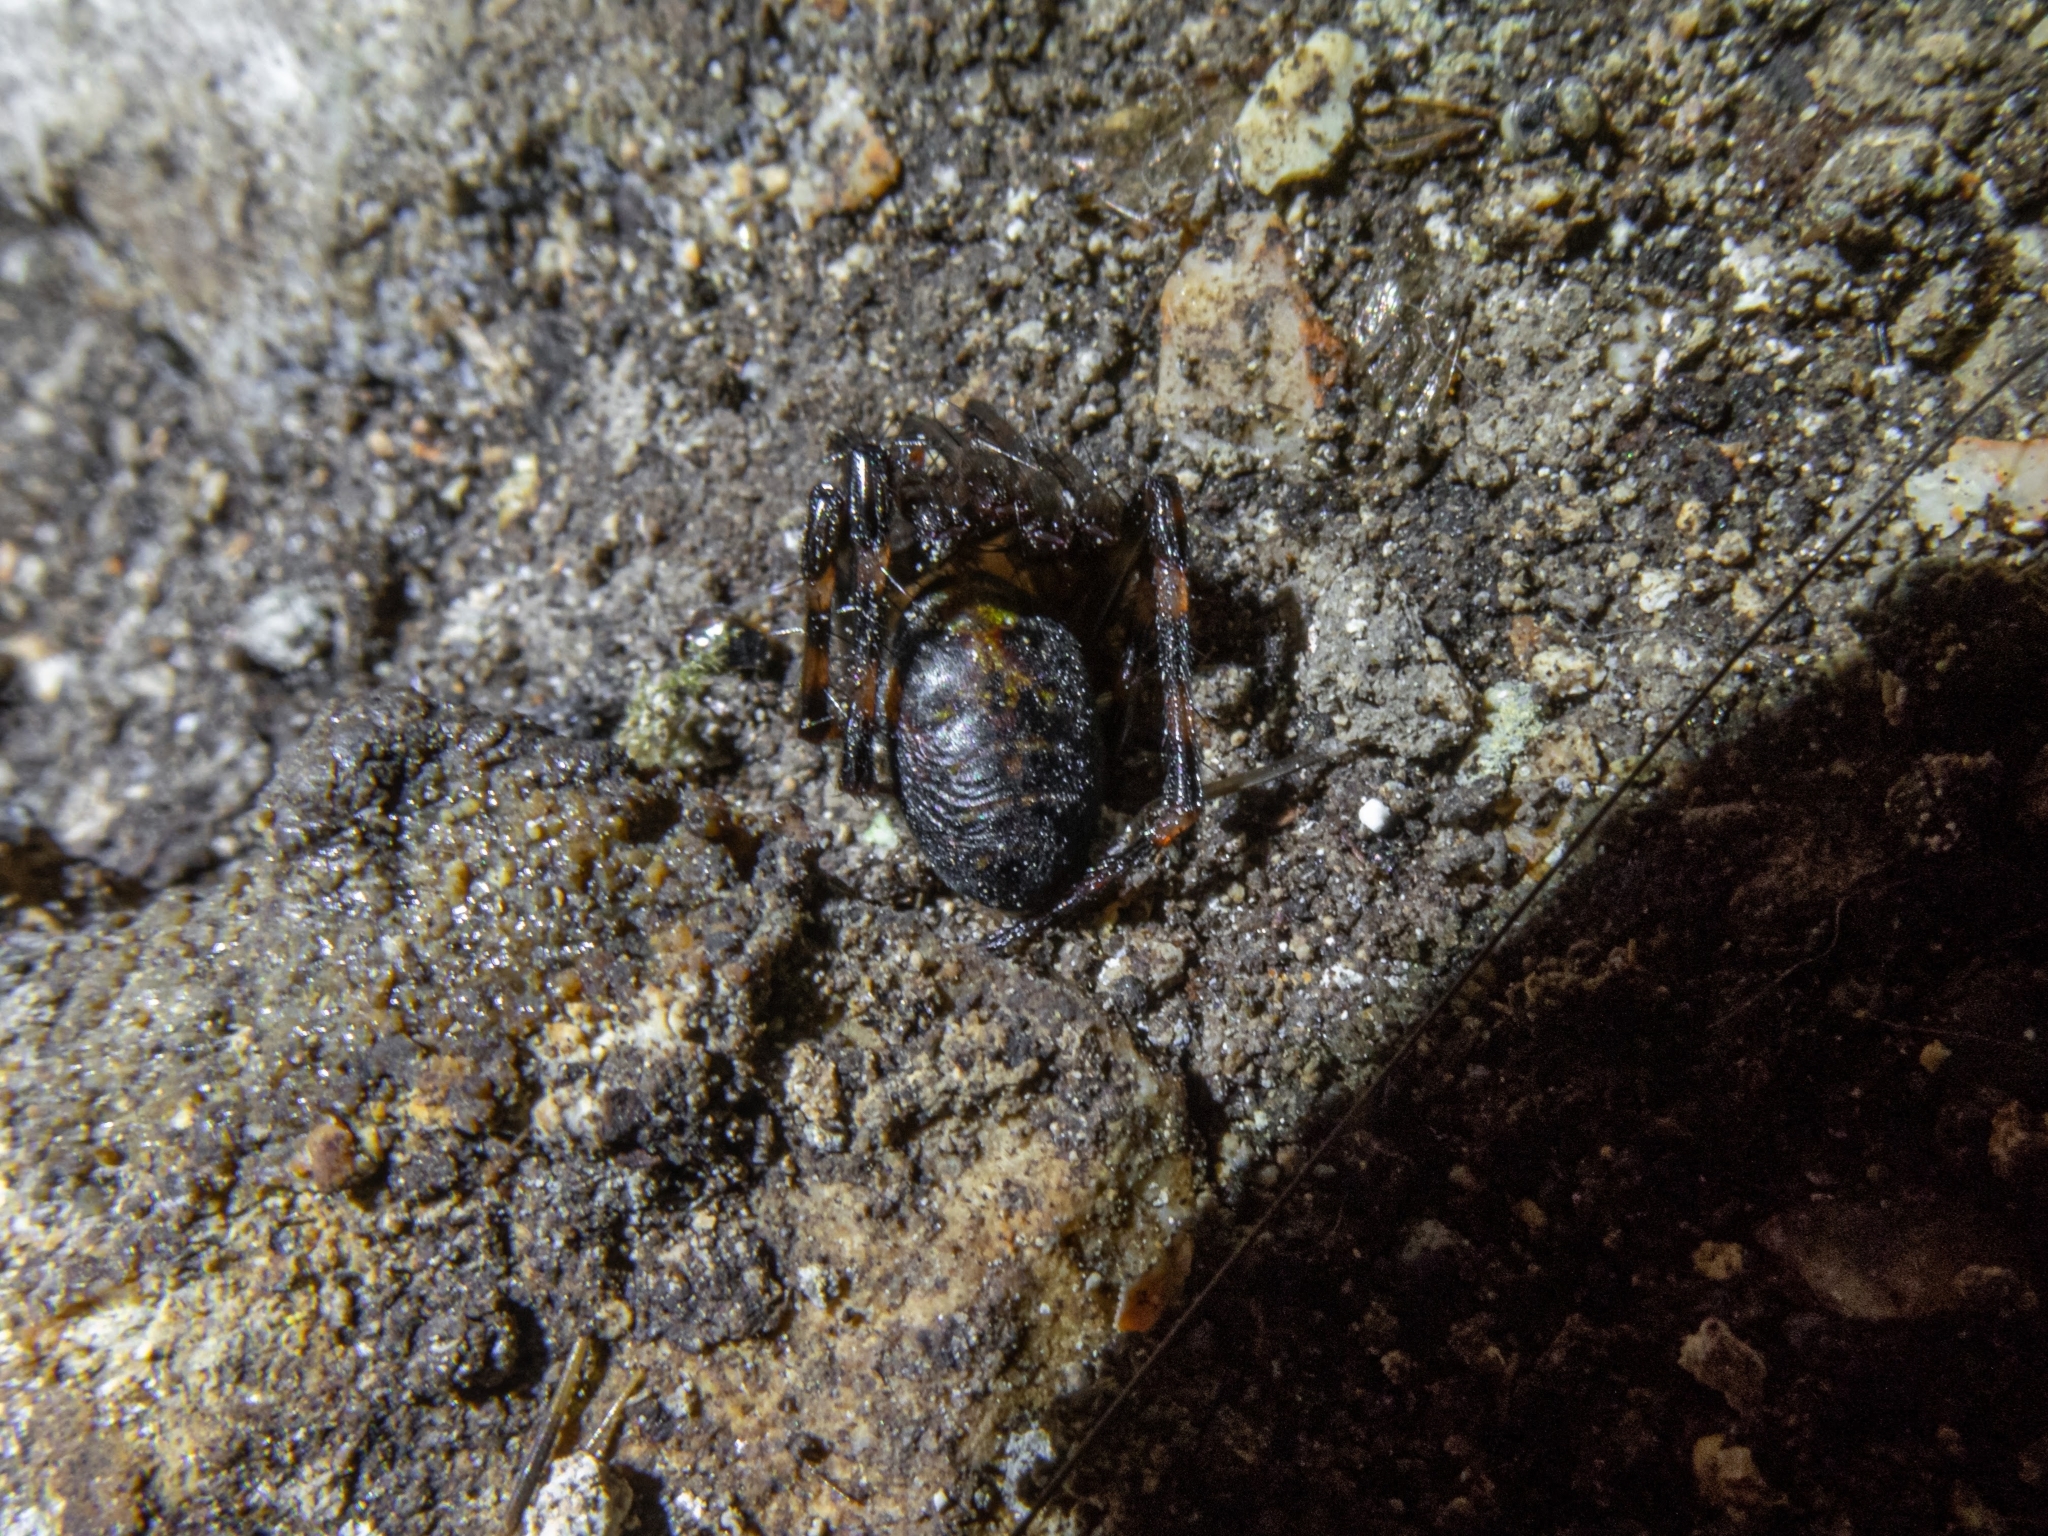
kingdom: Animalia
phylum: Arthropoda
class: Arachnida
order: Araneae
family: Tetragnathidae
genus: Meta
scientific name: Meta menardi
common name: Cave spider
